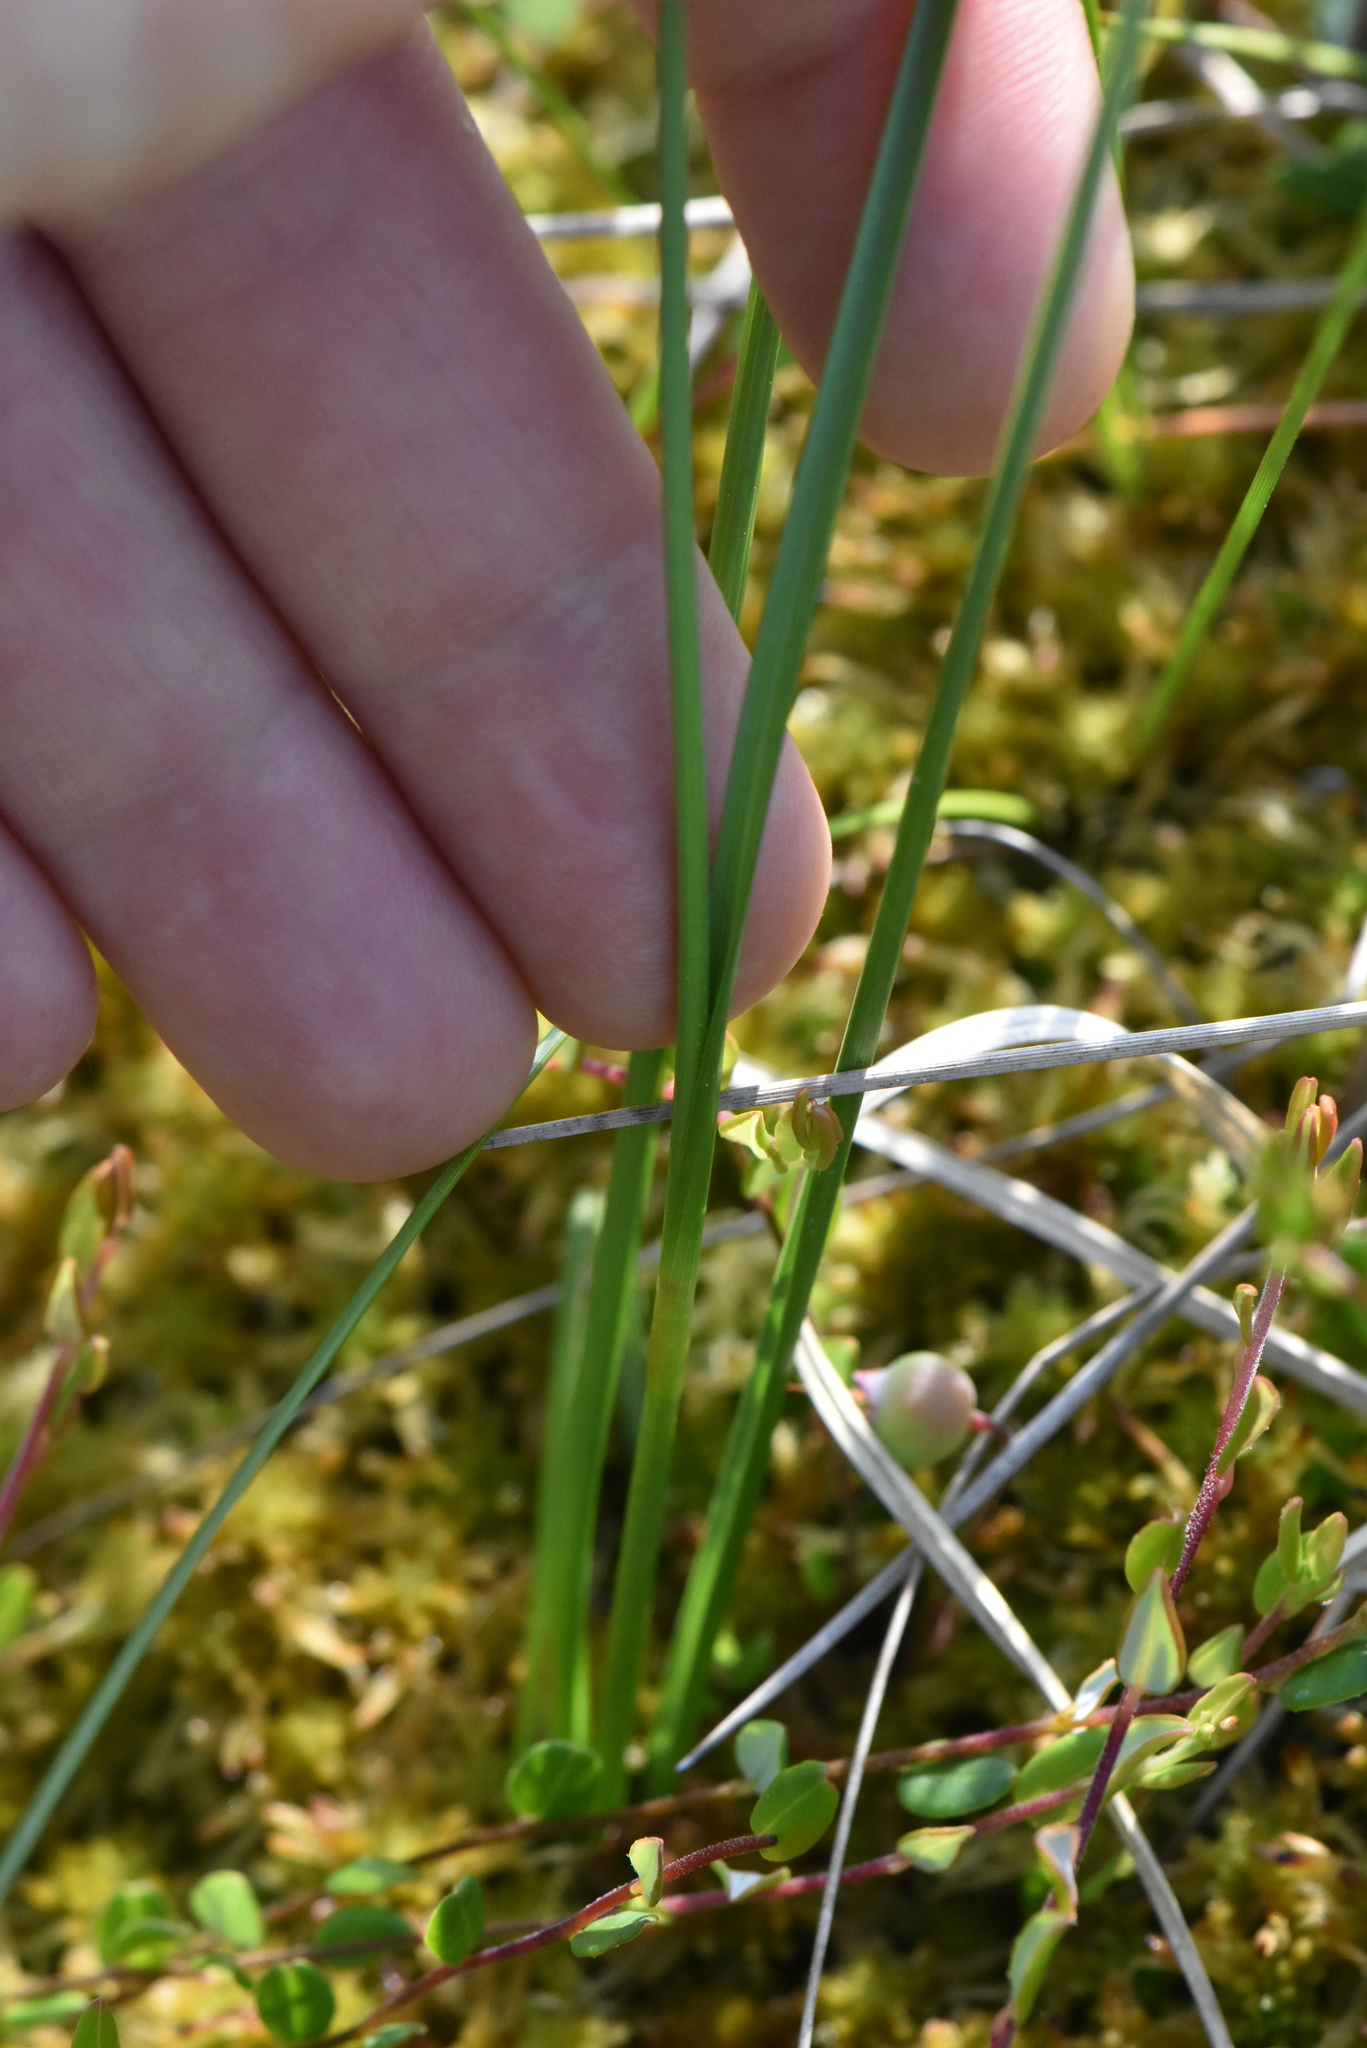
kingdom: Plantae
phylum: Tracheophyta
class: Liliopsida
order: Poales
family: Cyperaceae
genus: Carex
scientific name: Carex rostrata
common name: Bottle sedge
